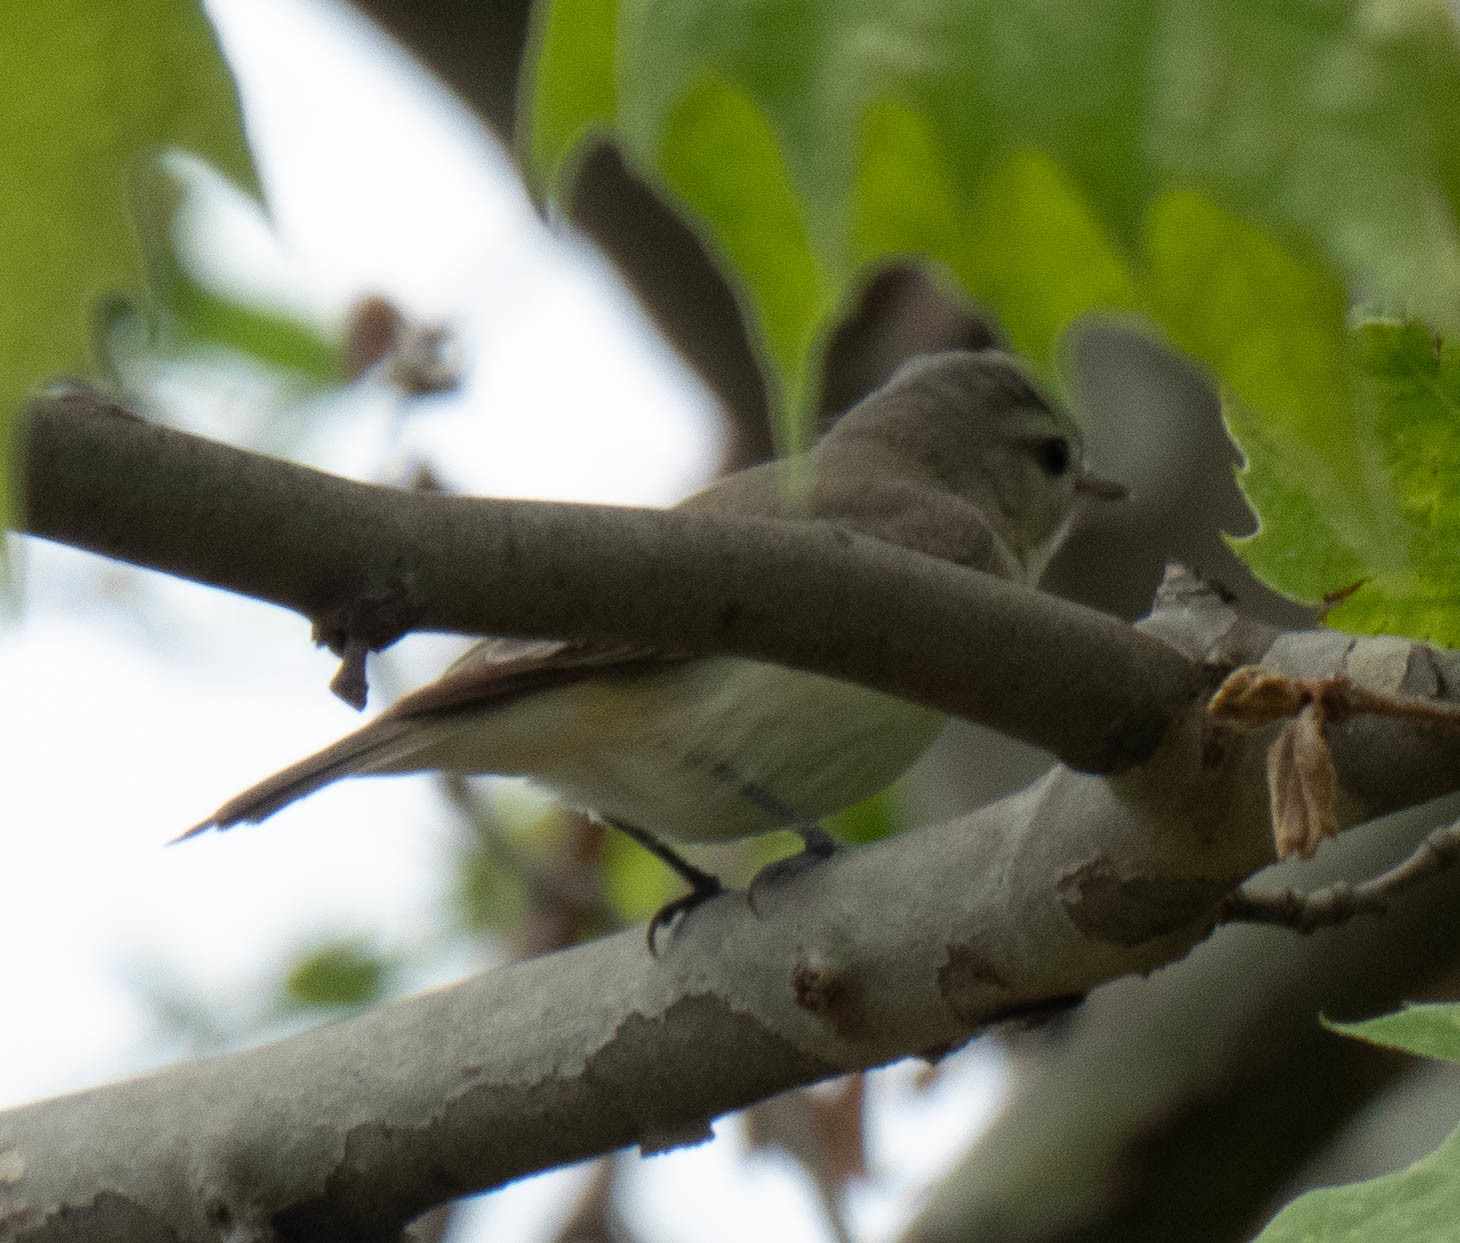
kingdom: Animalia
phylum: Chordata
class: Aves
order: Passeriformes
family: Vireonidae
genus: Vireo
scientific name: Vireo gilvus
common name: Warbling vireo
